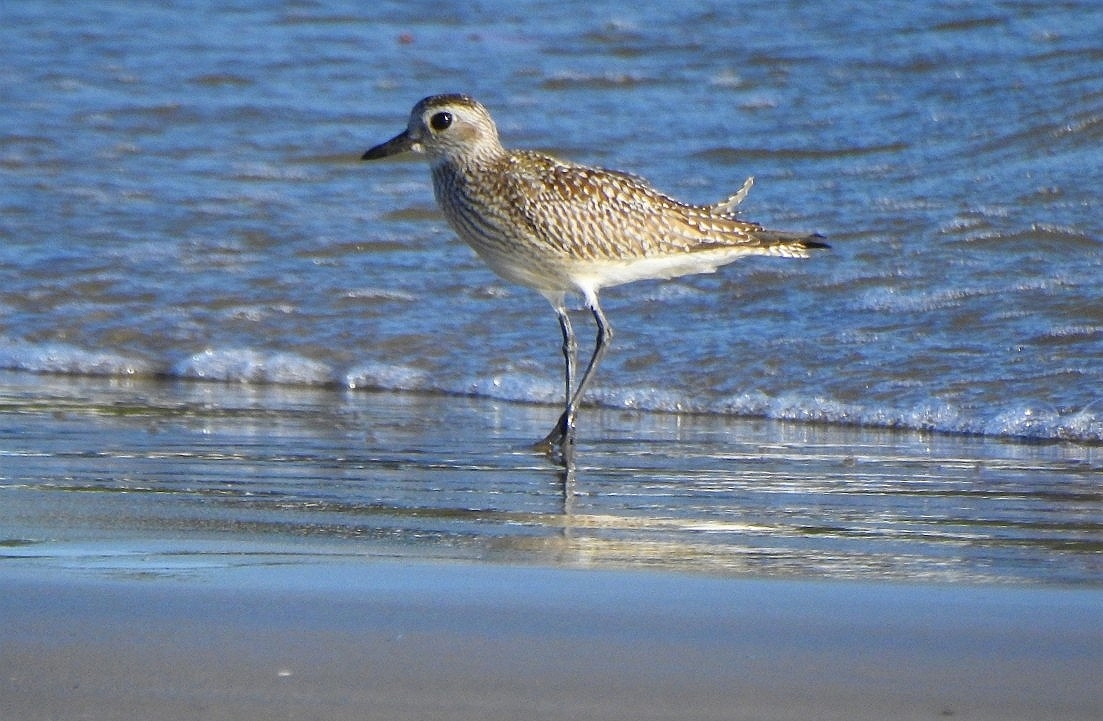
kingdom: Animalia
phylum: Chordata
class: Aves
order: Charadriiformes
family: Charadriidae
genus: Pluvialis
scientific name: Pluvialis squatarola
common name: Grey plover
